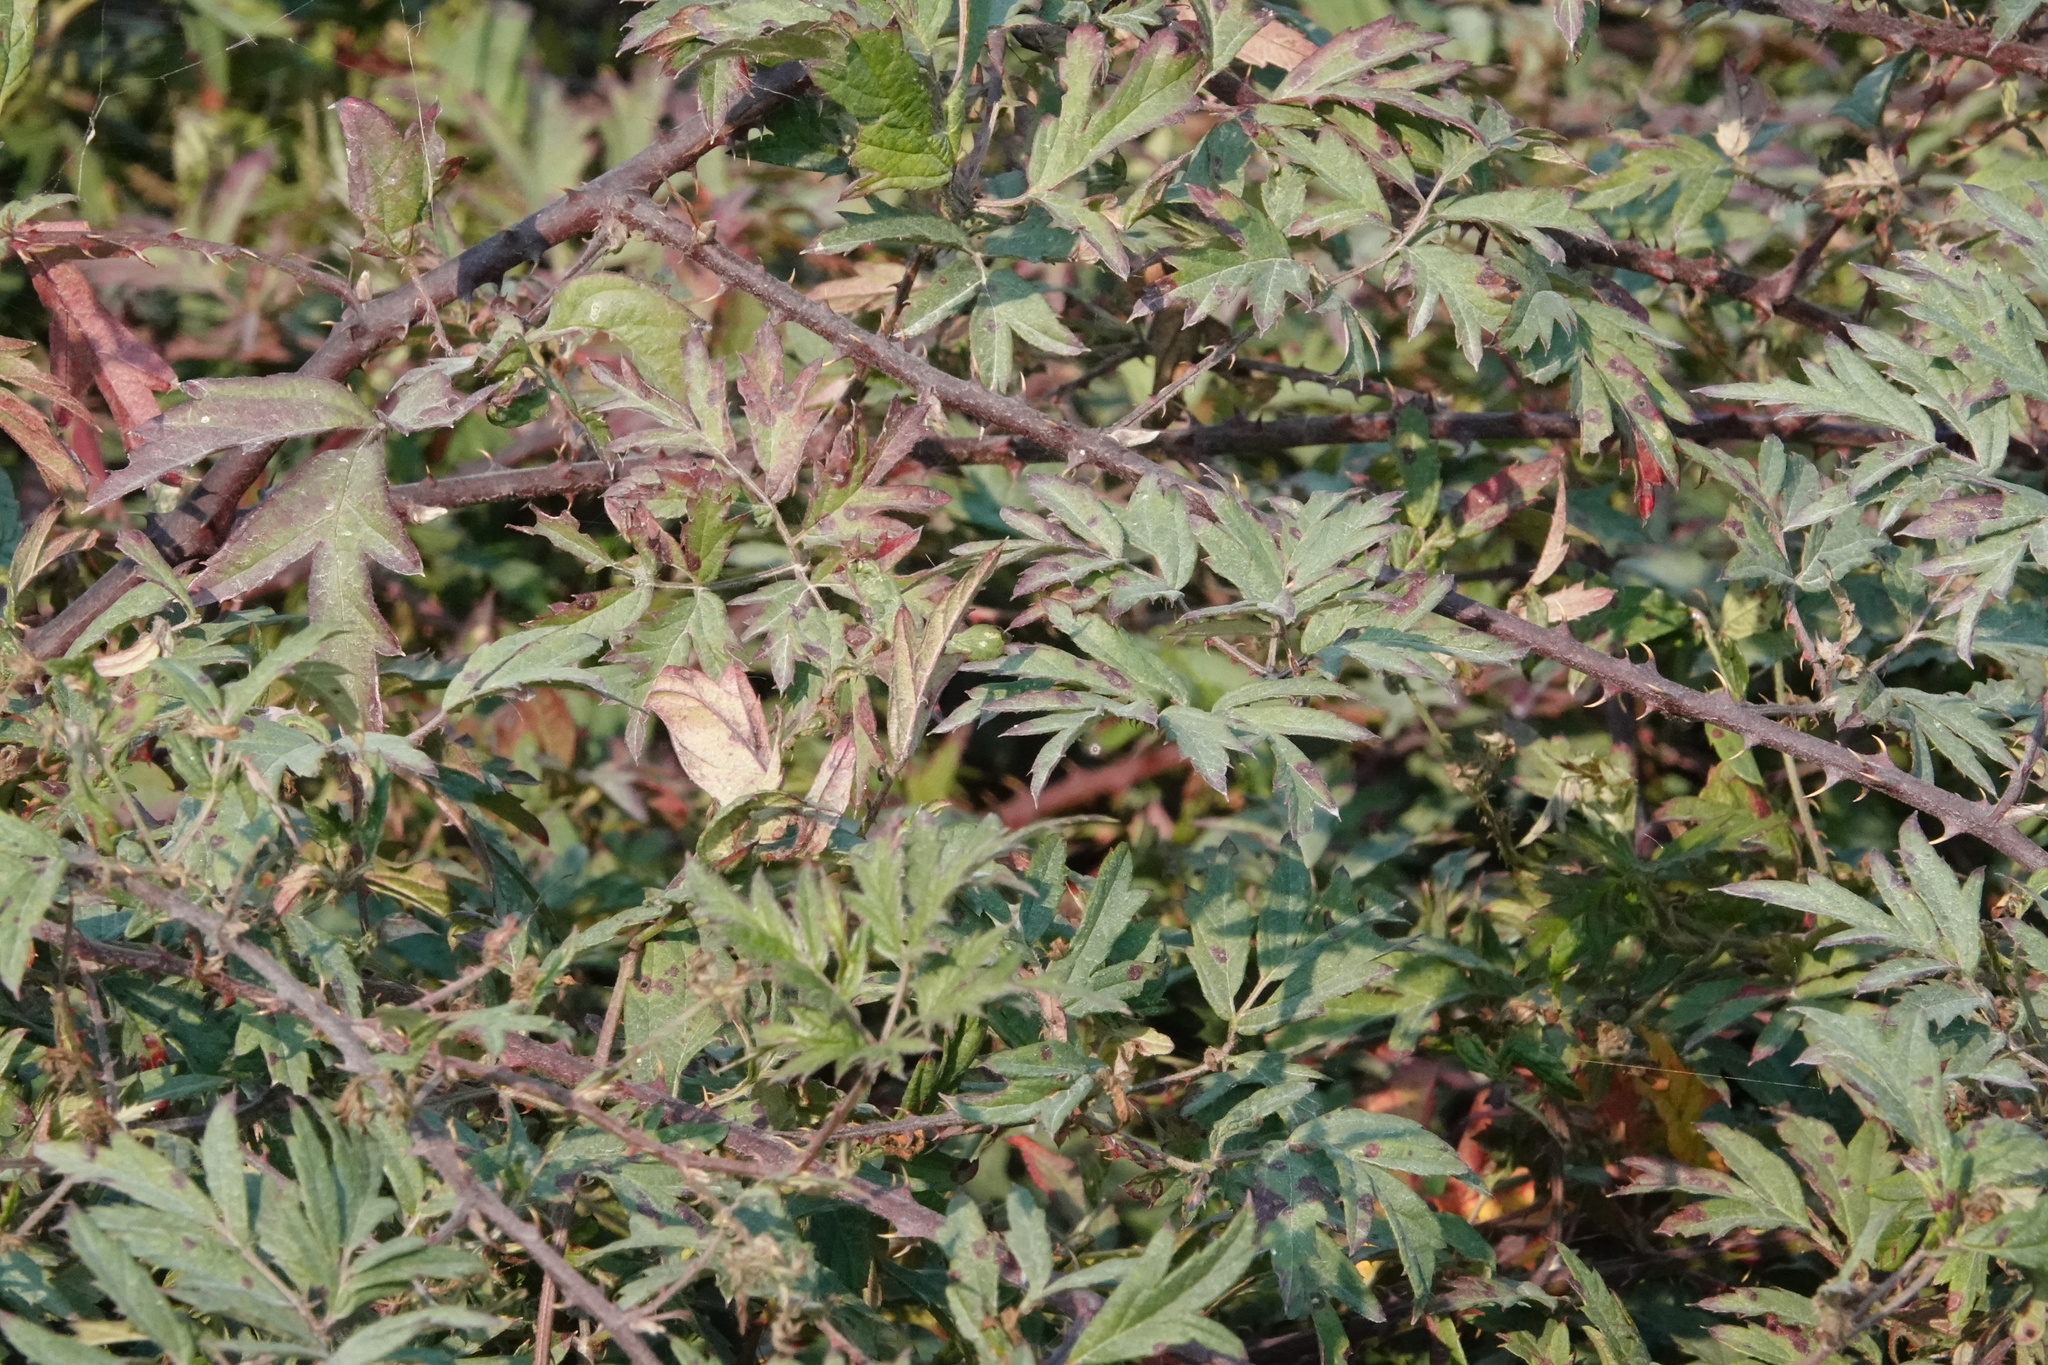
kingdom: Plantae
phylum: Tracheophyta
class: Magnoliopsida
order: Rosales
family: Rosaceae
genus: Rubus
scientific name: Rubus laciniatus
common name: Evergreen blackberry
